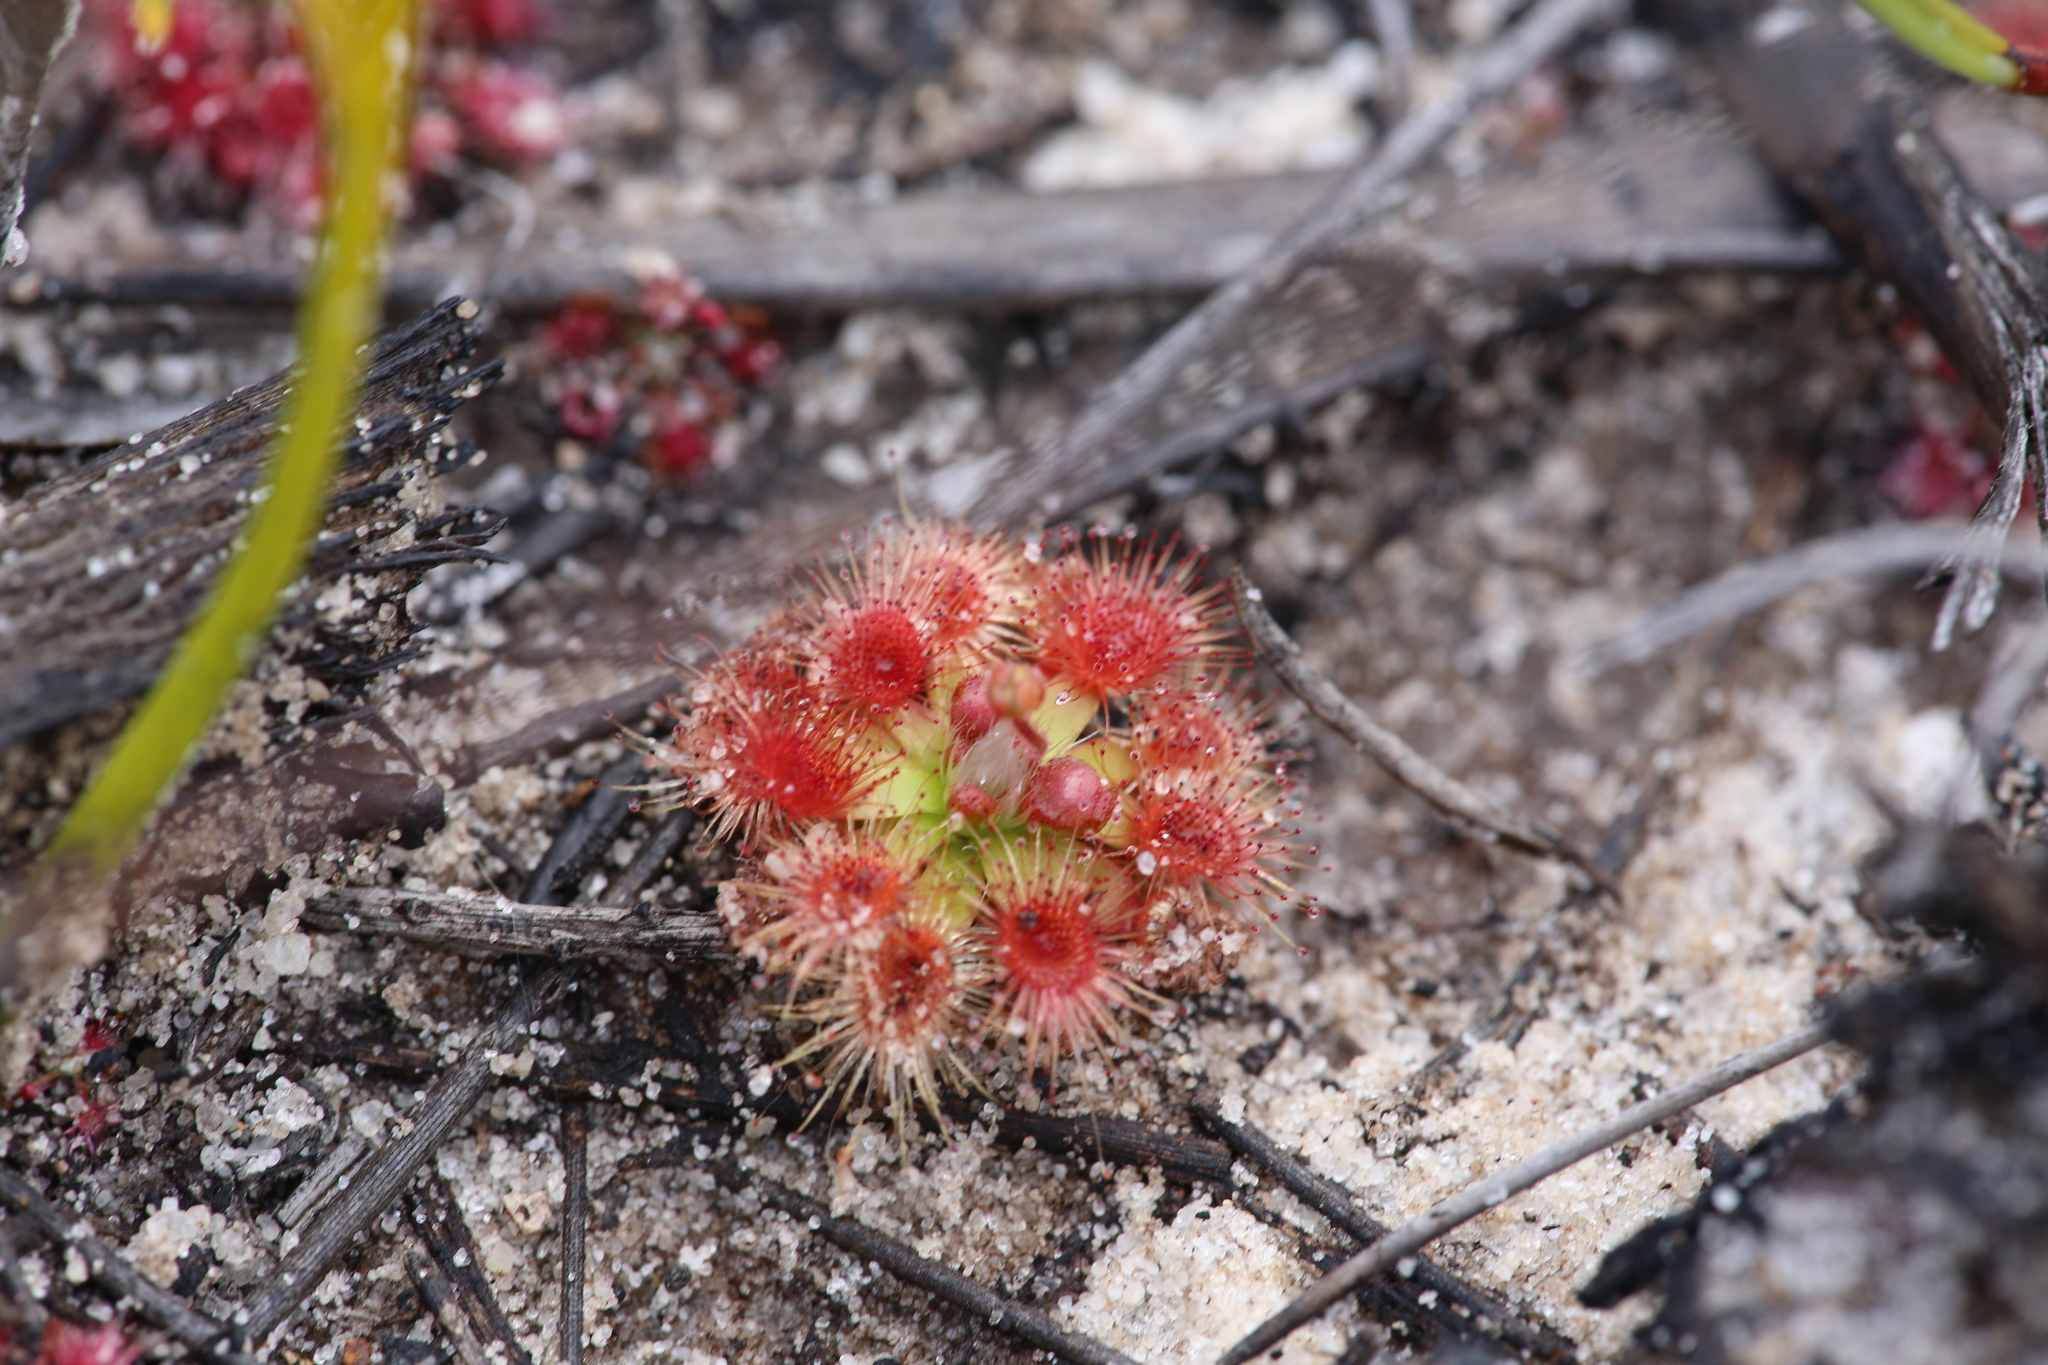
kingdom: Plantae
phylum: Tracheophyta
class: Magnoliopsida
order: Caryophyllales
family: Droseraceae
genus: Drosera
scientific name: Drosera pulchella
